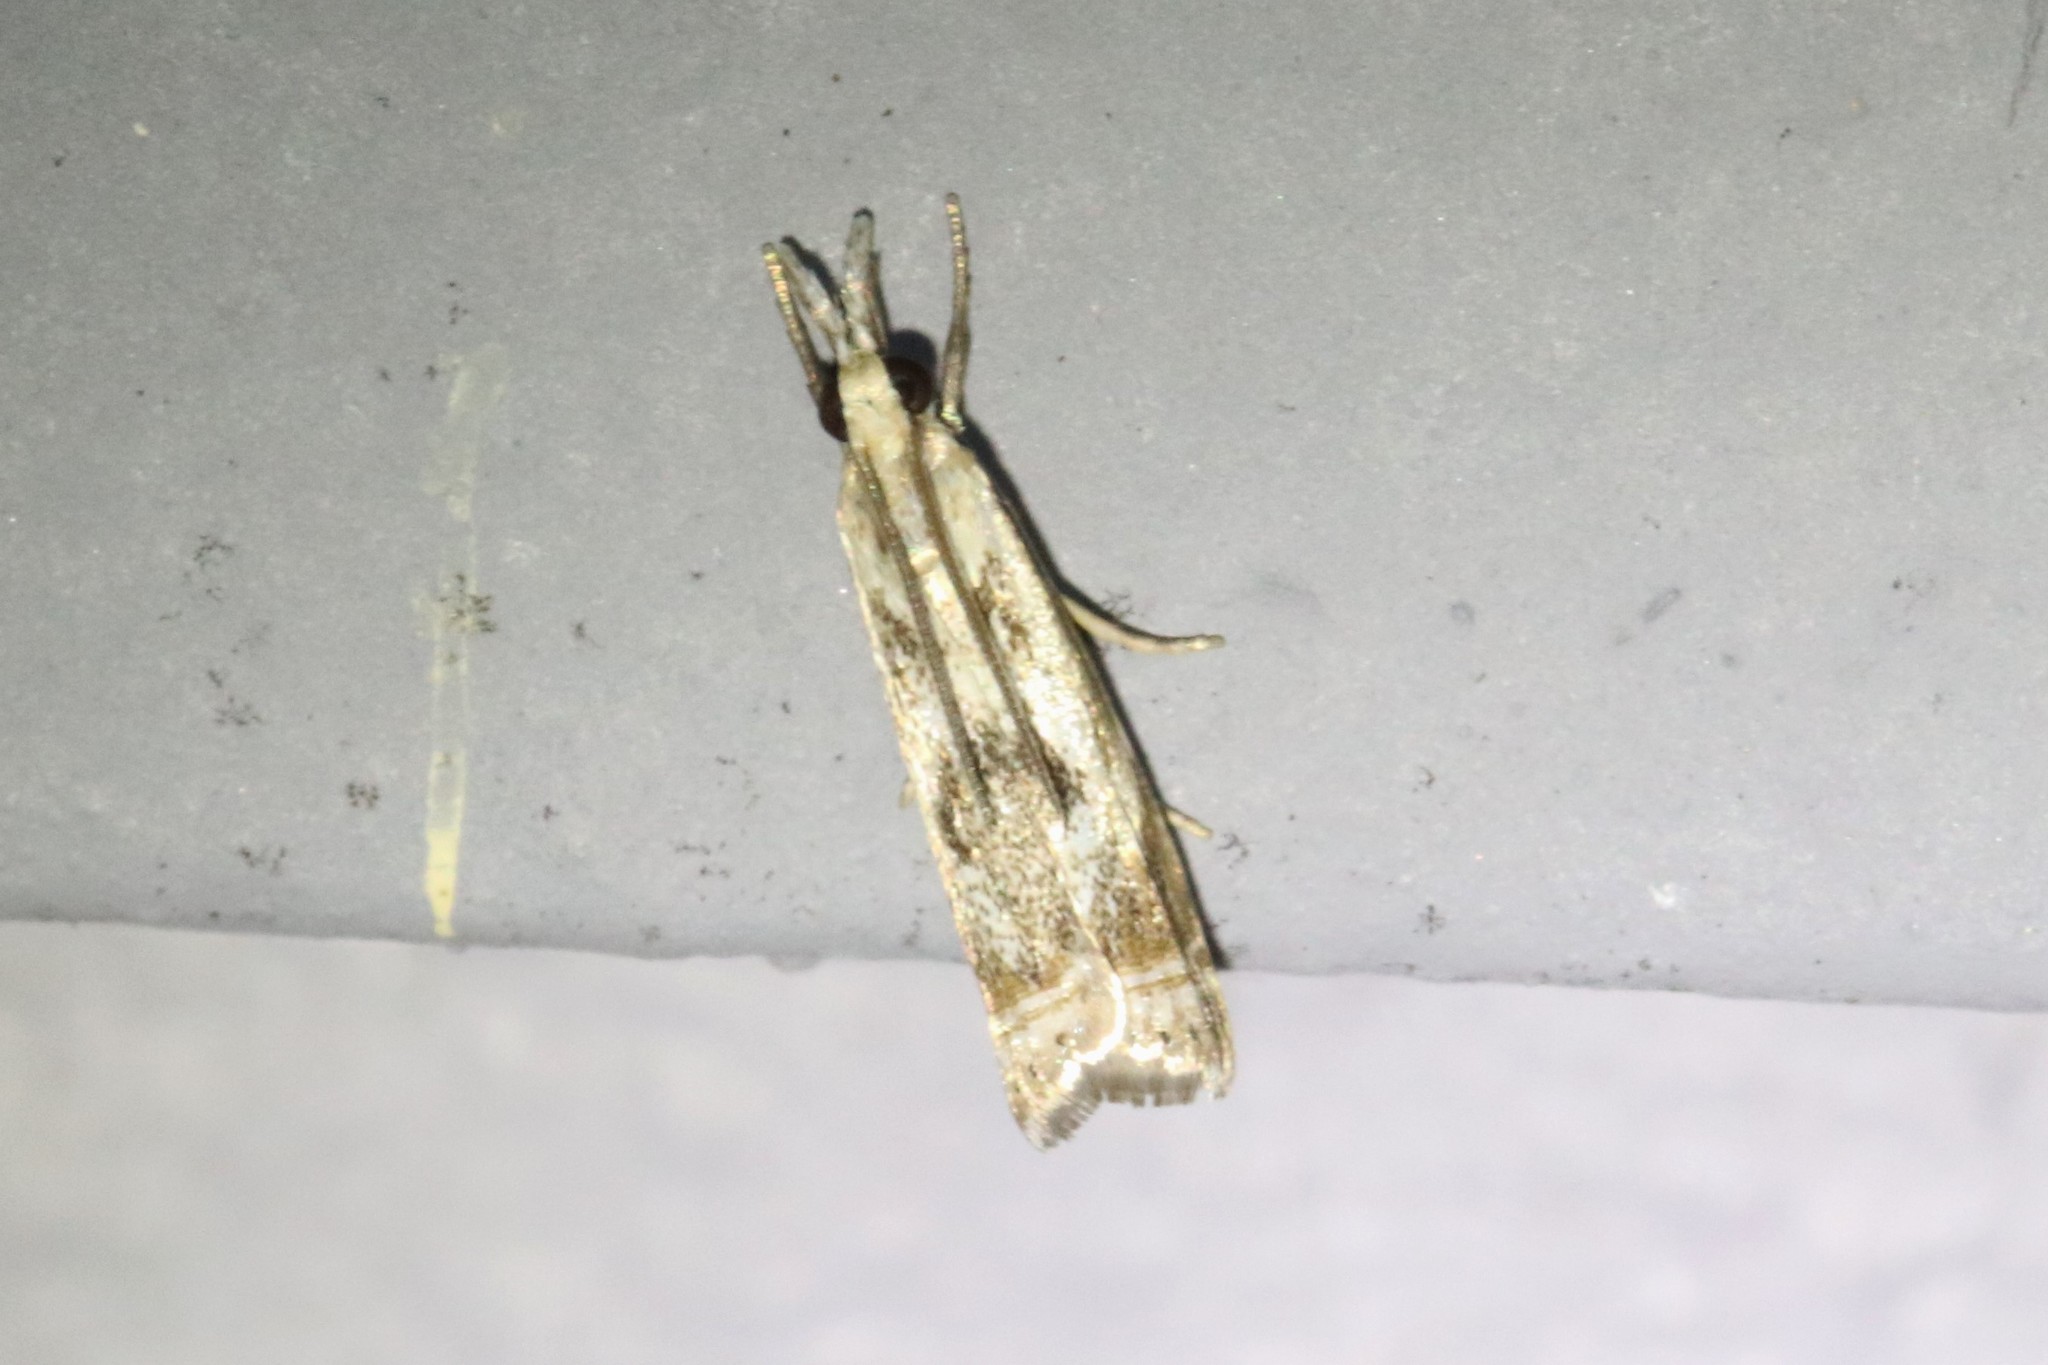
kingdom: Animalia
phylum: Arthropoda
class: Insecta
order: Lepidoptera
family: Crambidae
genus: Microcrambus
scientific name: Microcrambus elegans
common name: Elegant grass-veneer
